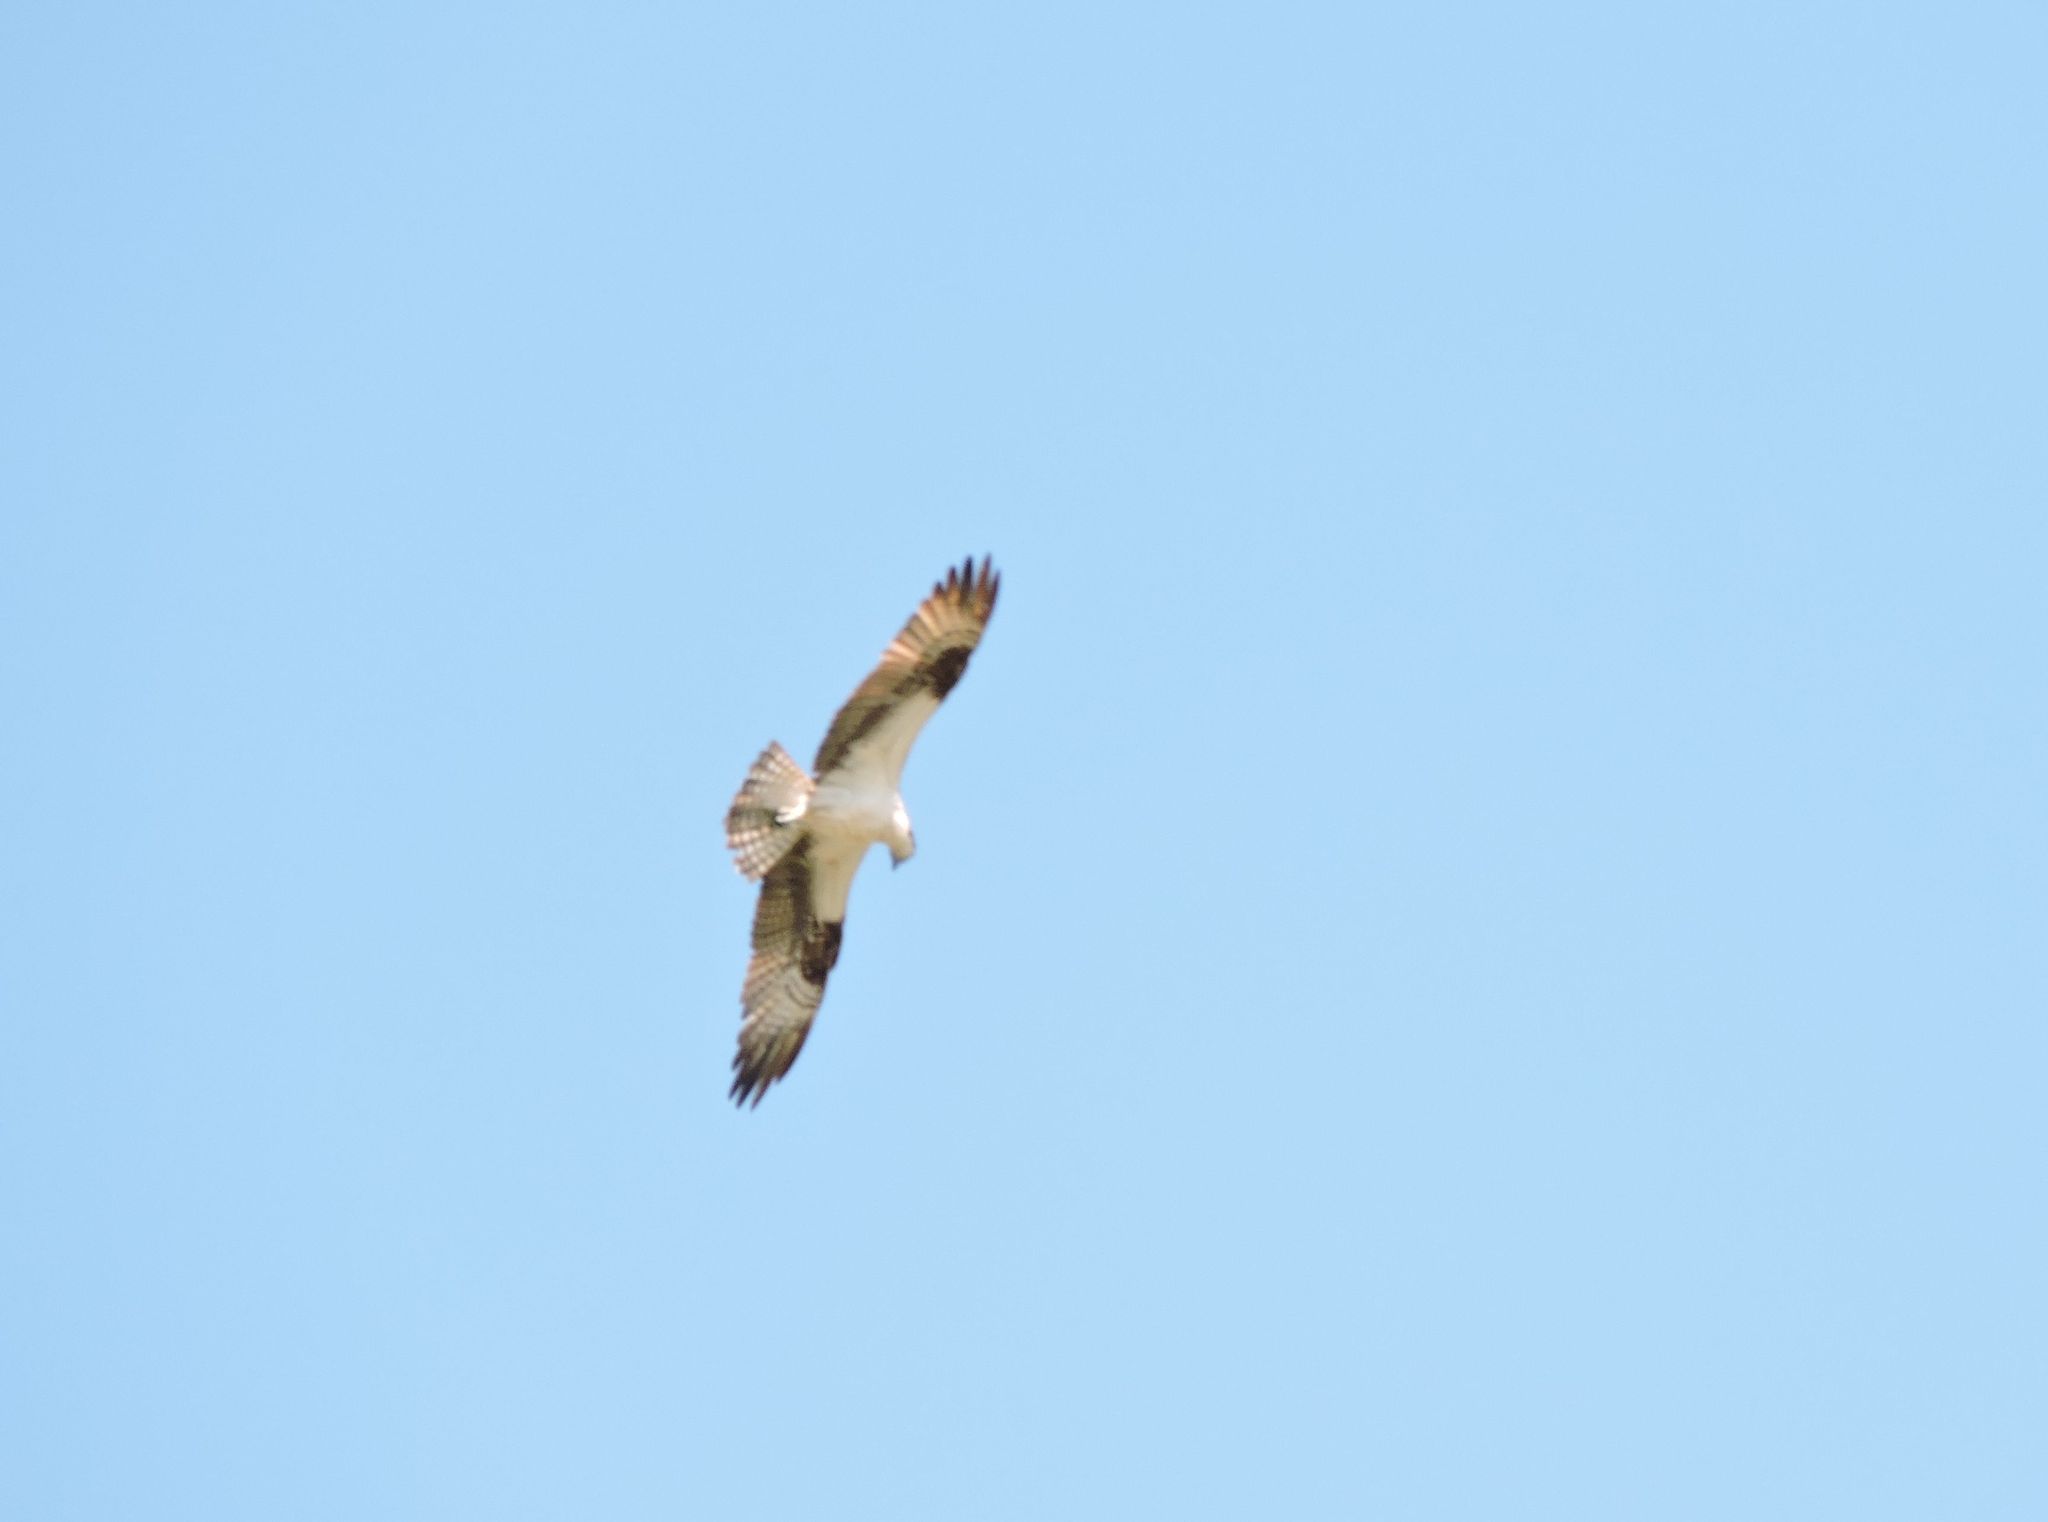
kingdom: Animalia
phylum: Chordata
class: Aves
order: Accipitriformes
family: Pandionidae
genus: Pandion
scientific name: Pandion haliaetus
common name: Osprey
